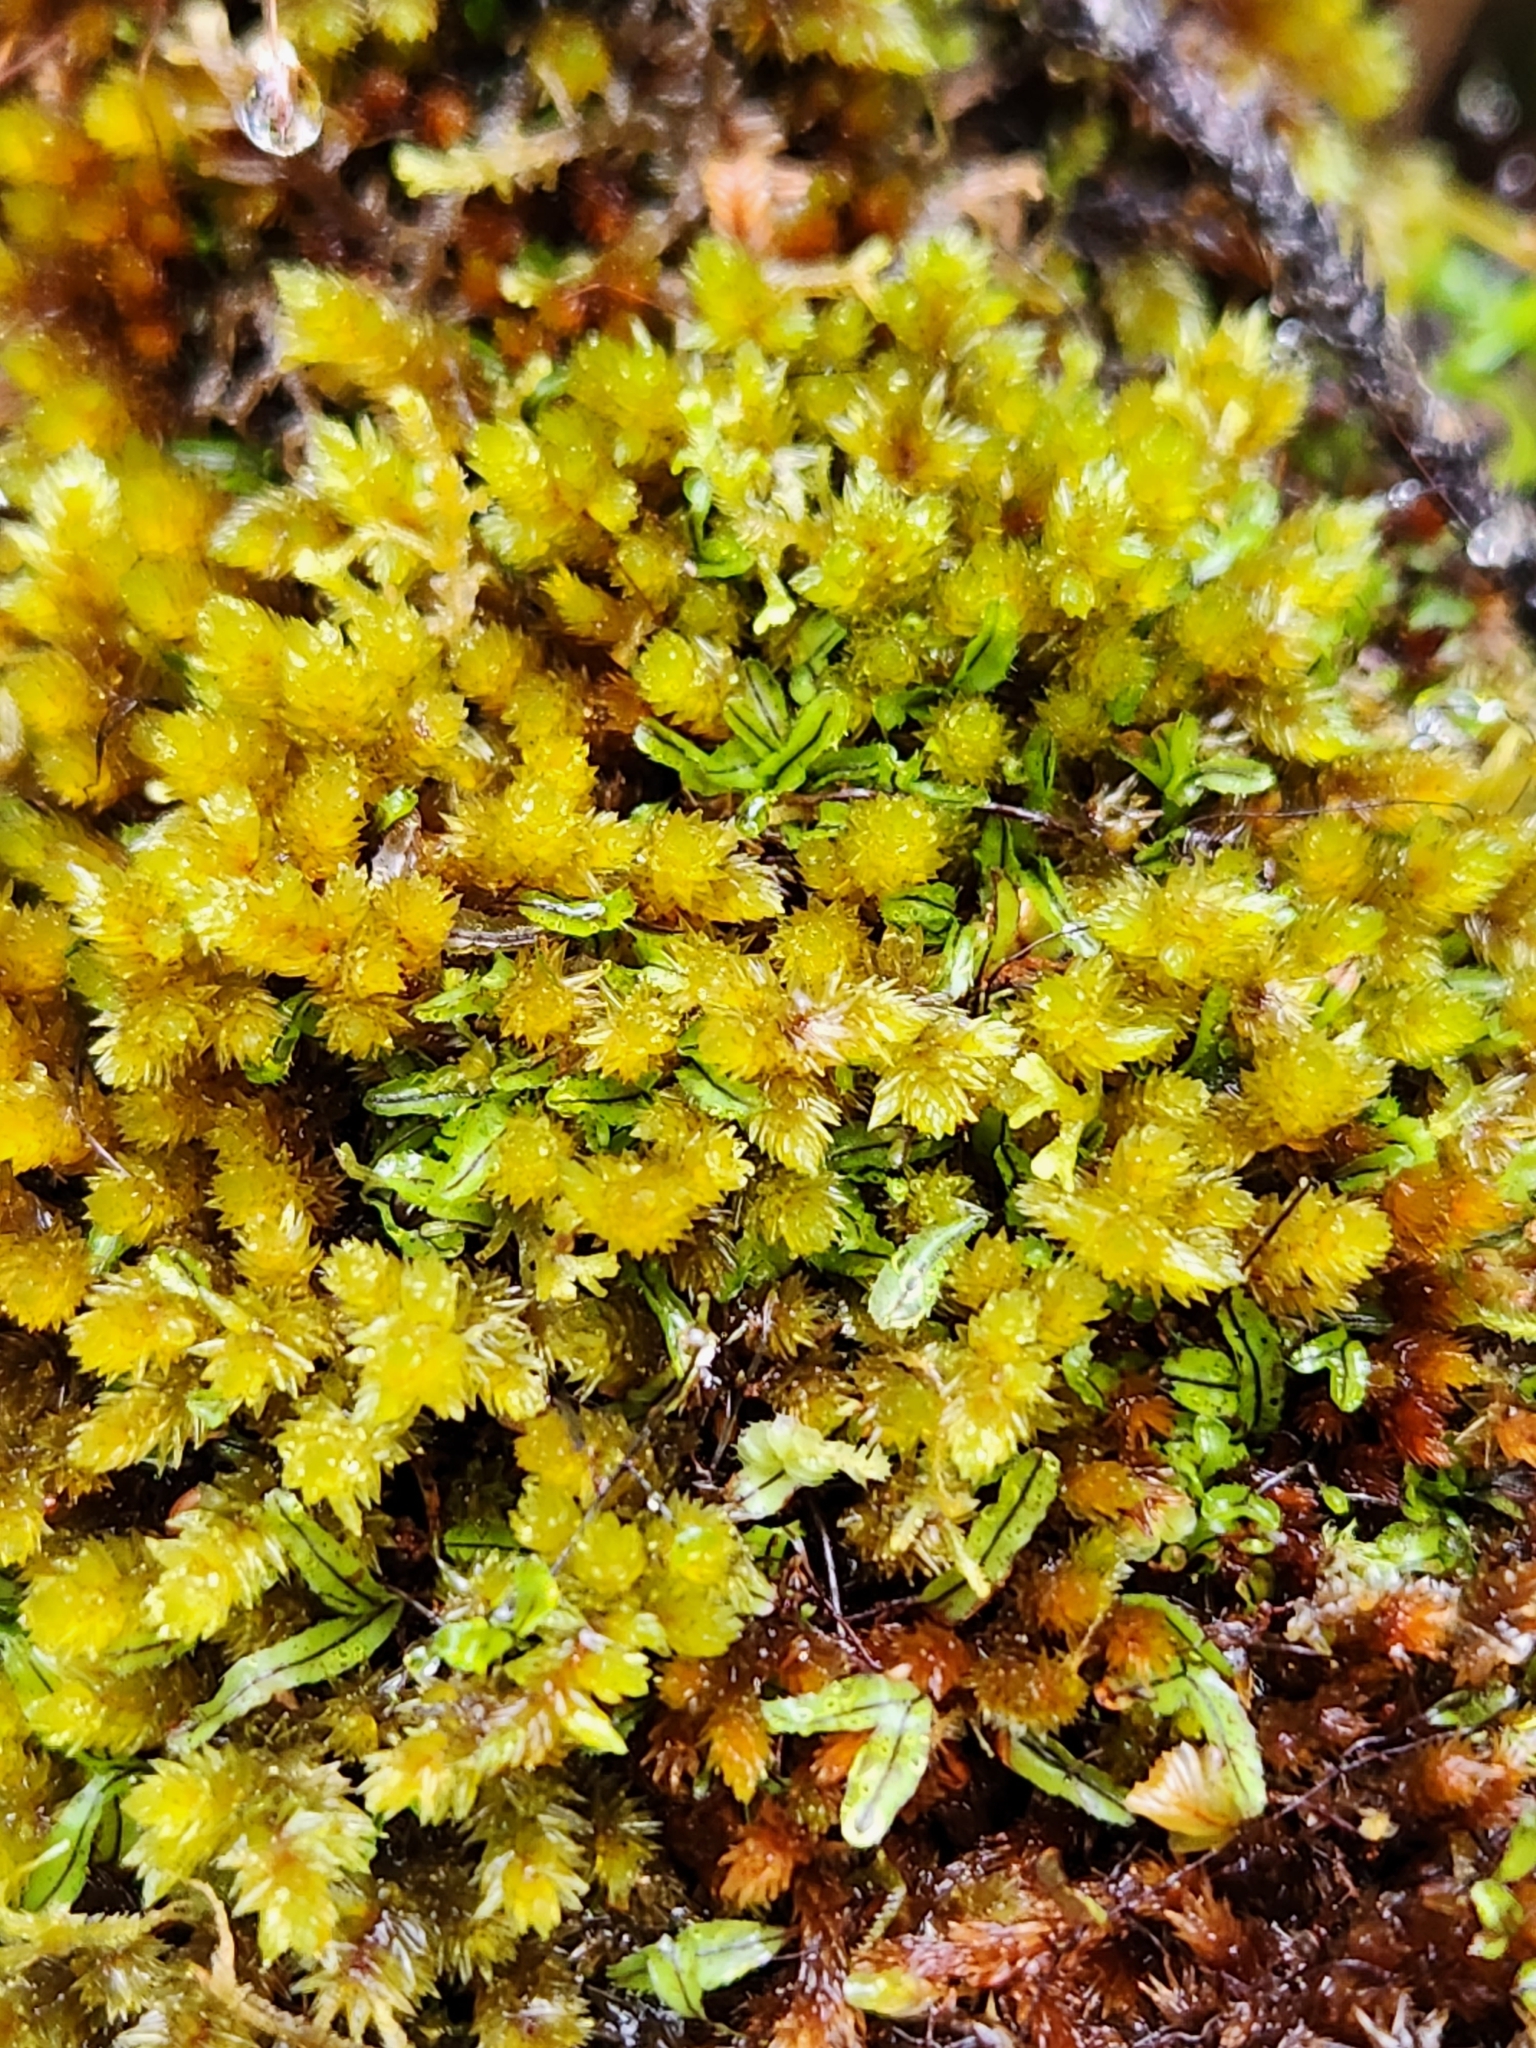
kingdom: Plantae
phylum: Tracheophyta
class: Polypodiopsida
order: Hymenophyllales
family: Hymenophyllaceae
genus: Hymenophyllum
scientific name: Hymenophyllum armstrongii
